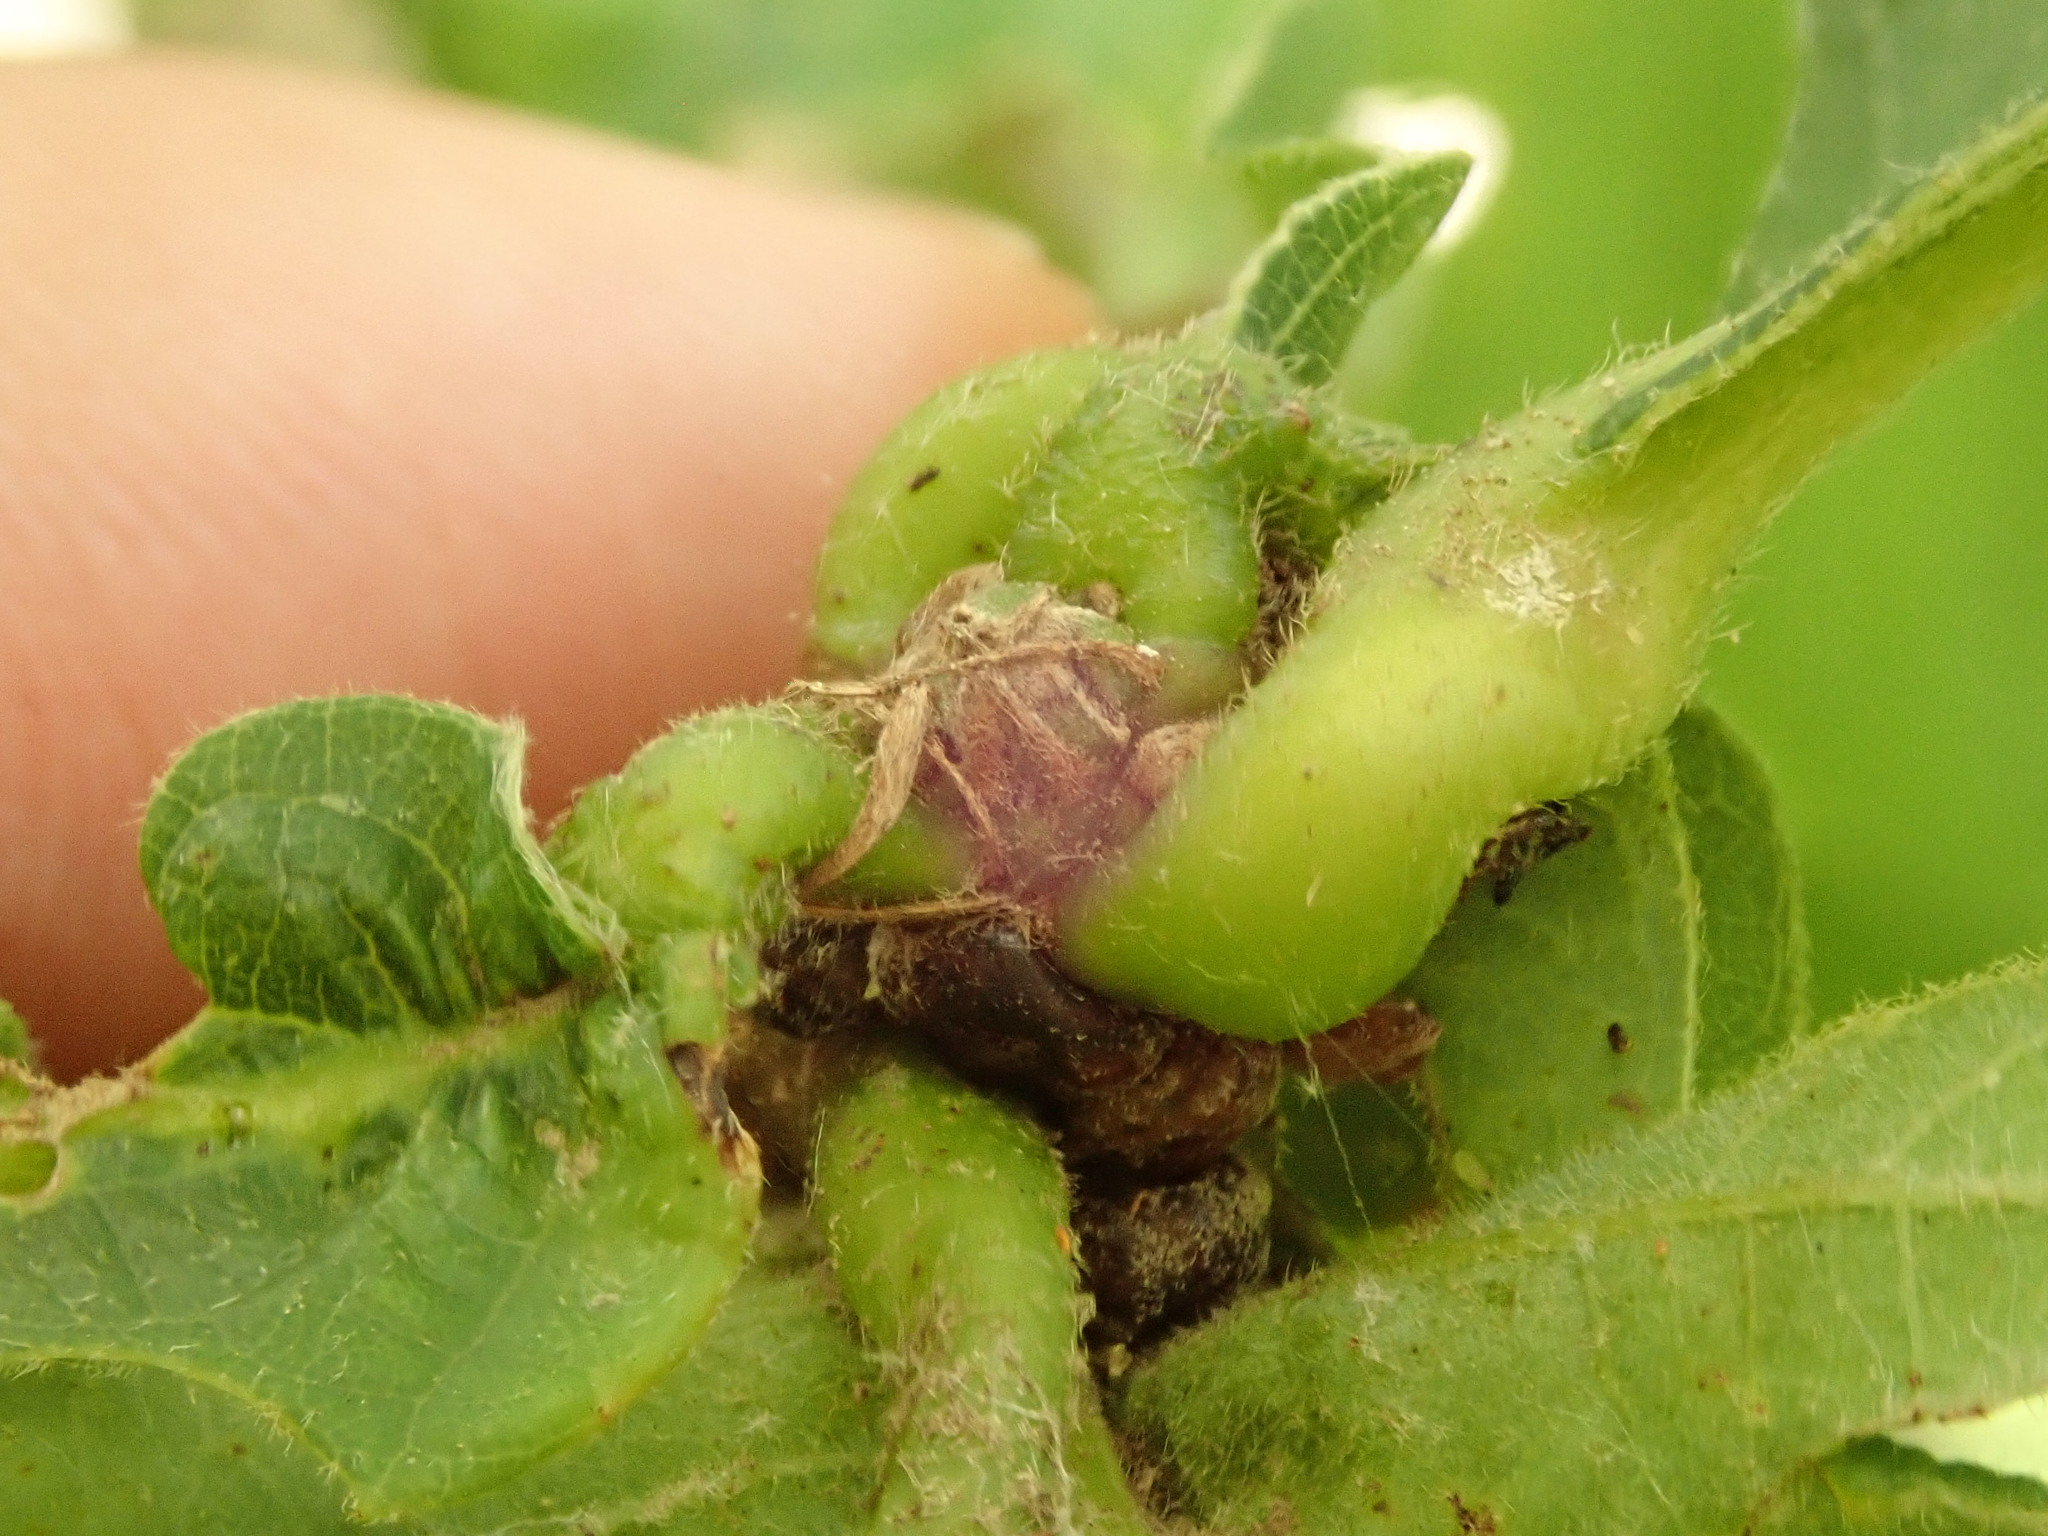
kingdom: Animalia
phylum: Arthropoda
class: Insecta
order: Hymenoptera
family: Cynipidae
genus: Neuroterus
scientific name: Neuroterus quercusbaccarum
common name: Common spangle gall
